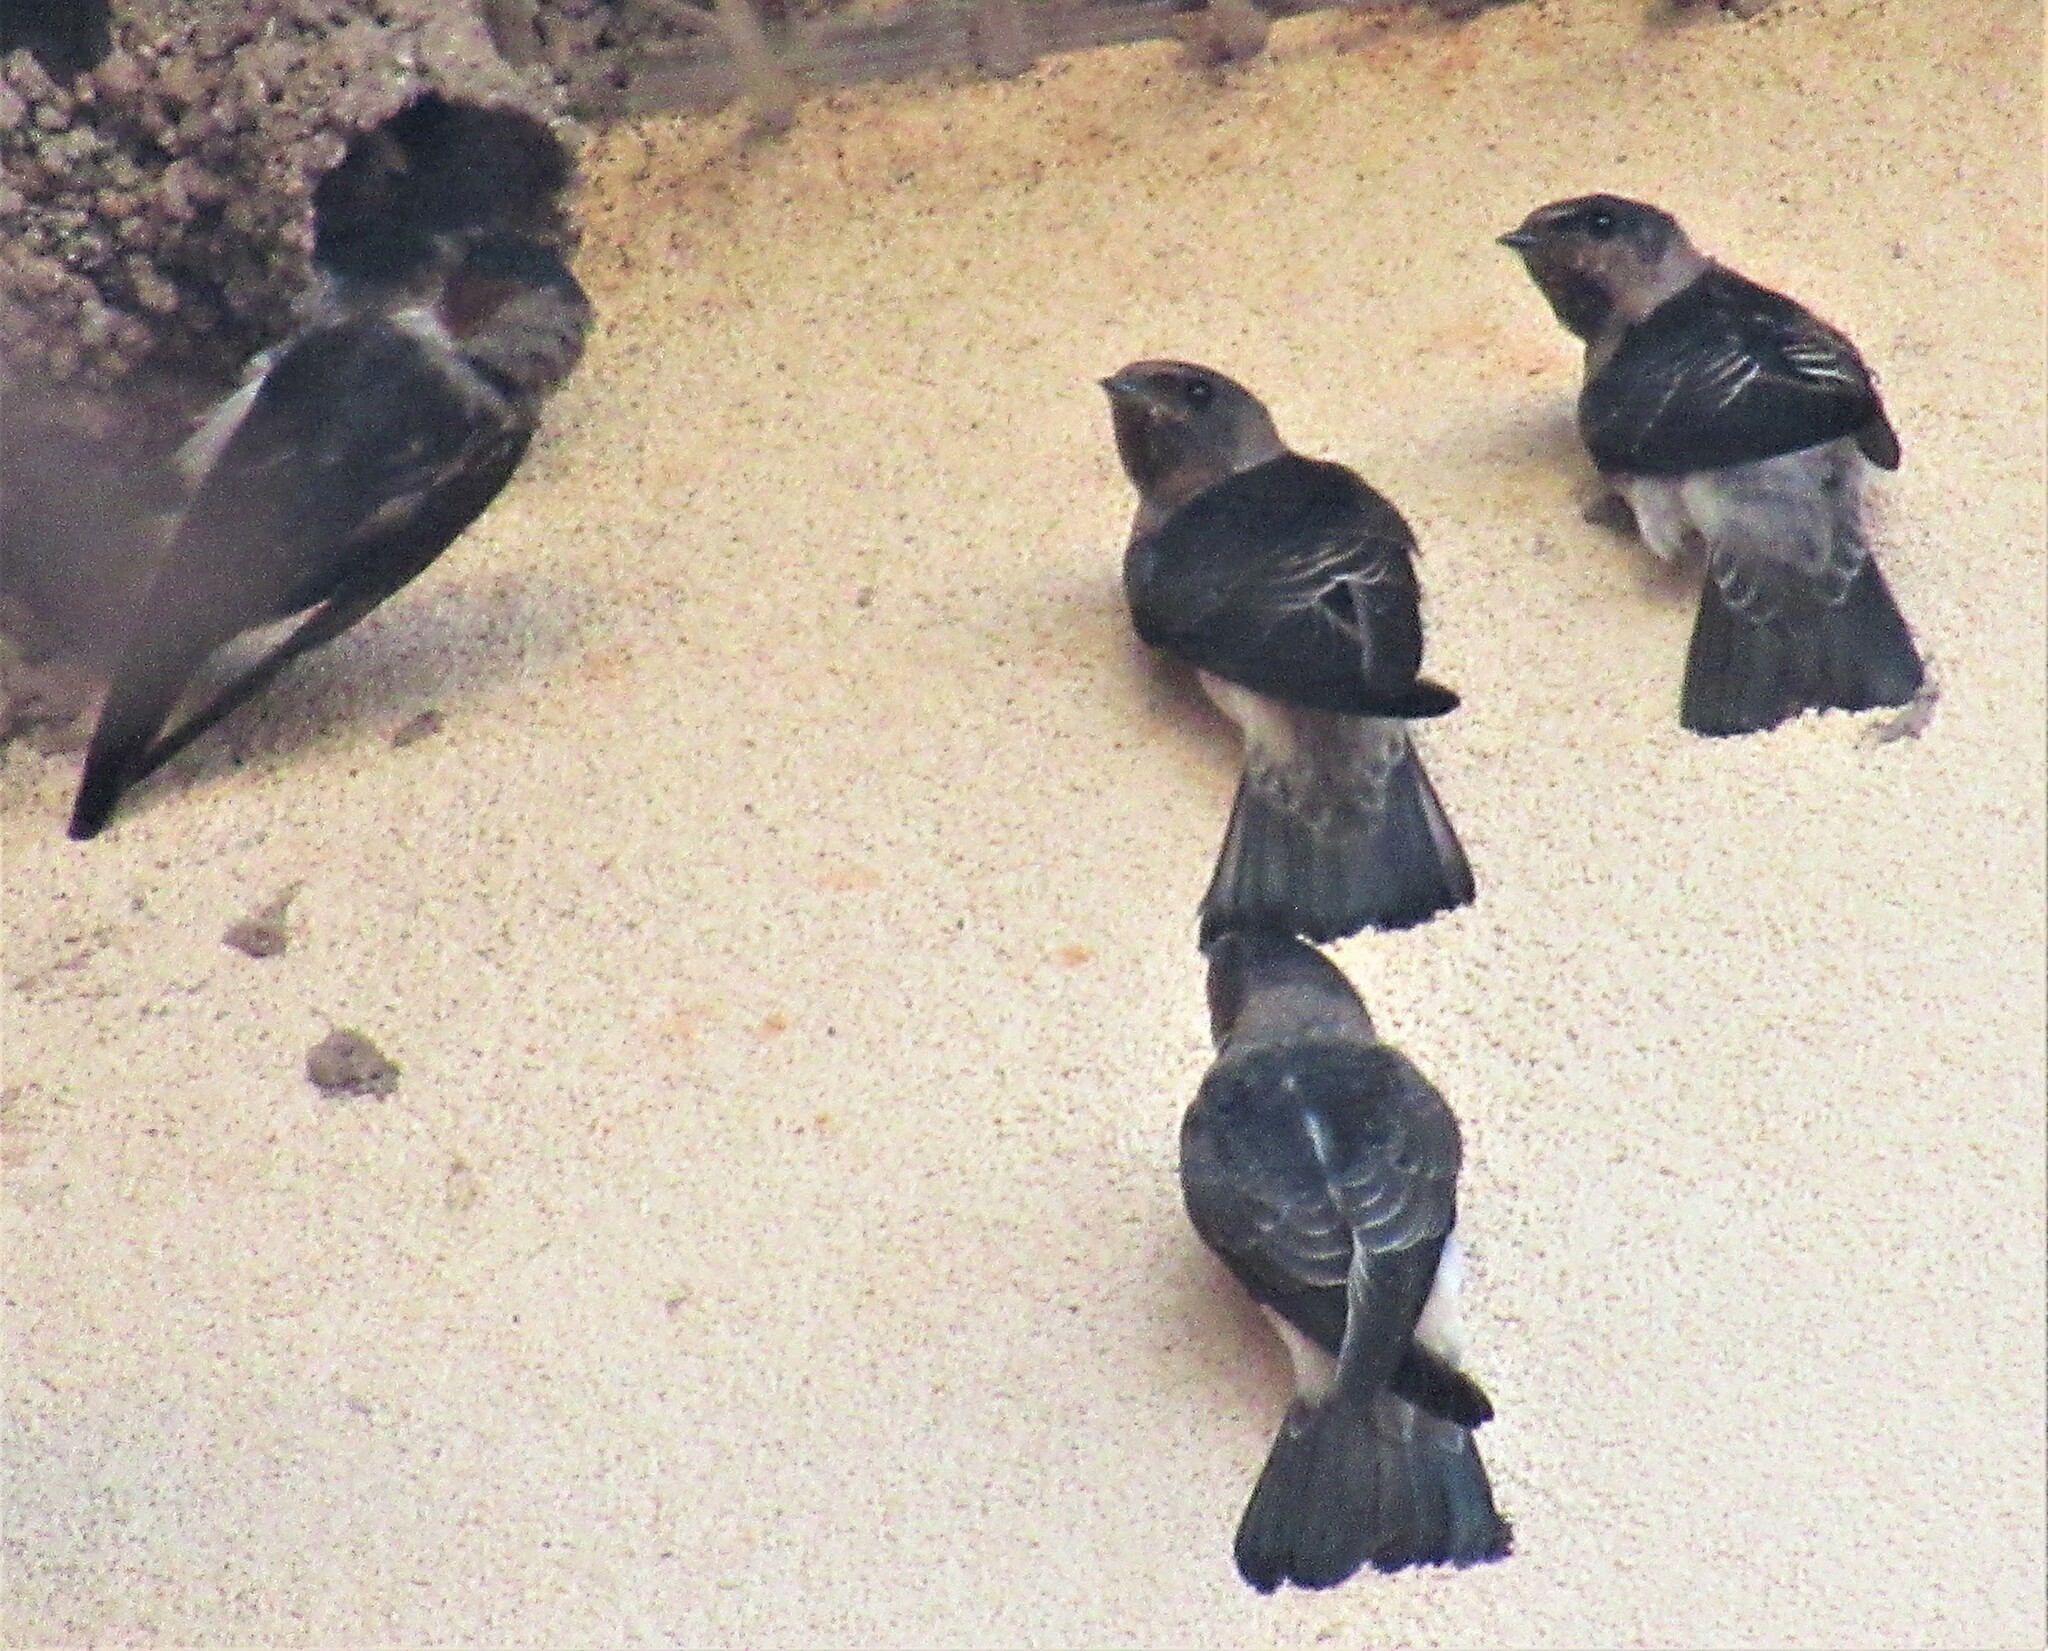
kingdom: Animalia
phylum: Chordata
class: Aves
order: Passeriformes
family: Hirundinidae
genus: Petrochelidon
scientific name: Petrochelidon pyrrhonota
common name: American cliff swallow
